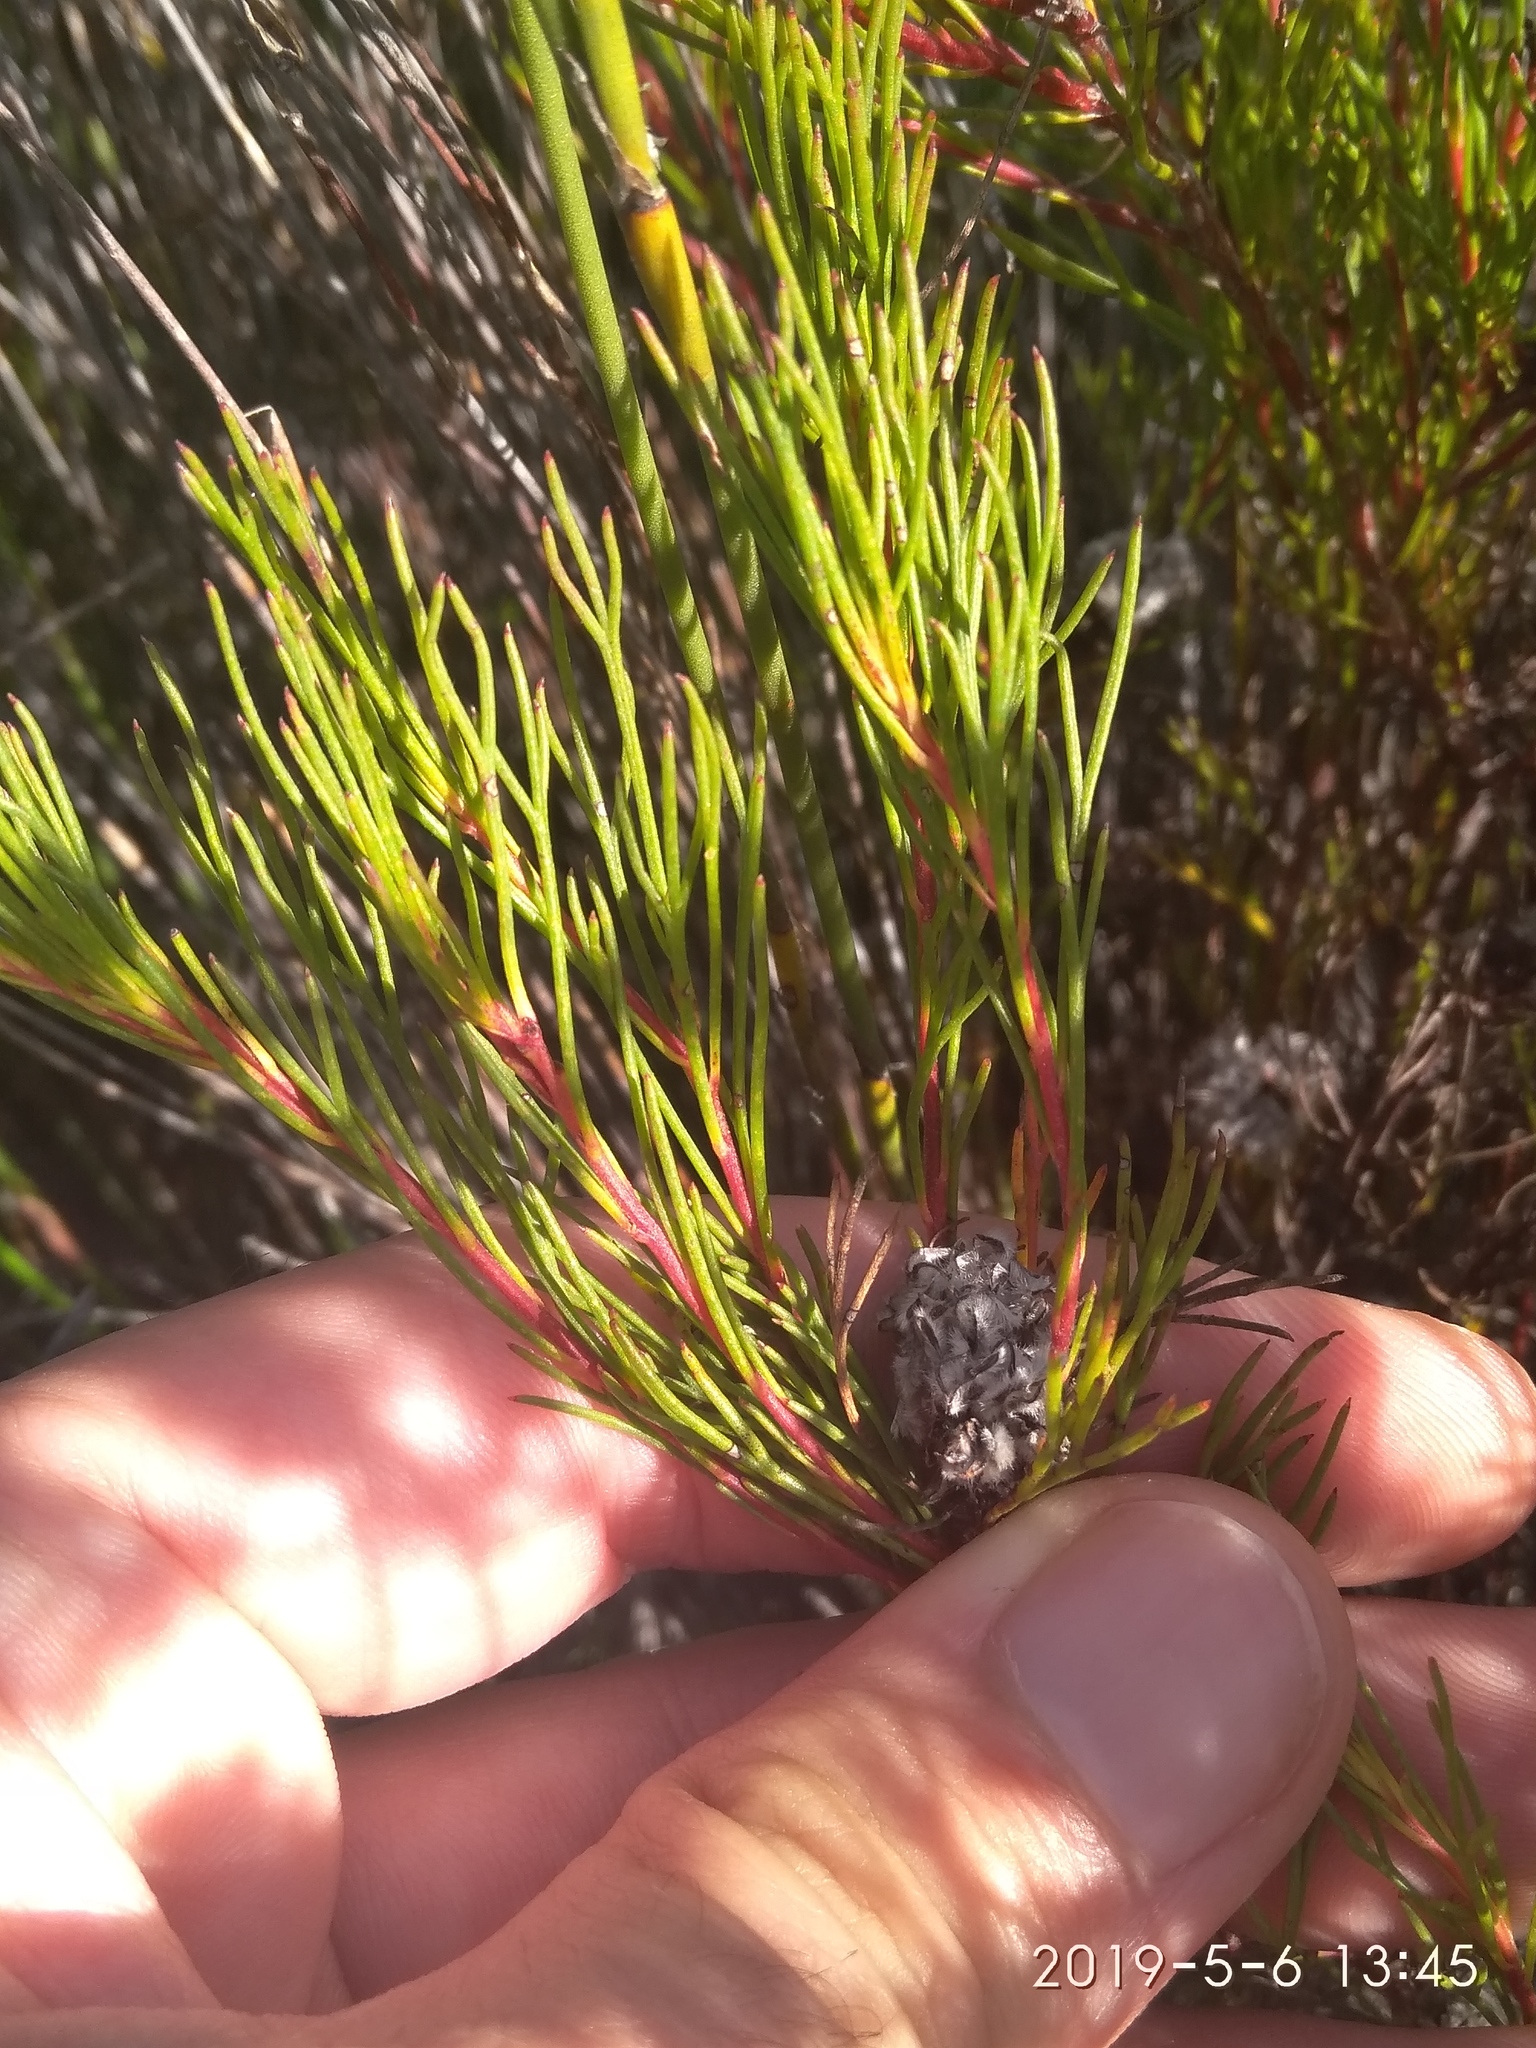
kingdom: Plantae
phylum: Tracheophyta
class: Magnoliopsida
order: Proteales
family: Proteaceae
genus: Serruria
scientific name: Serruria nervosa
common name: Fluted spiderhead
